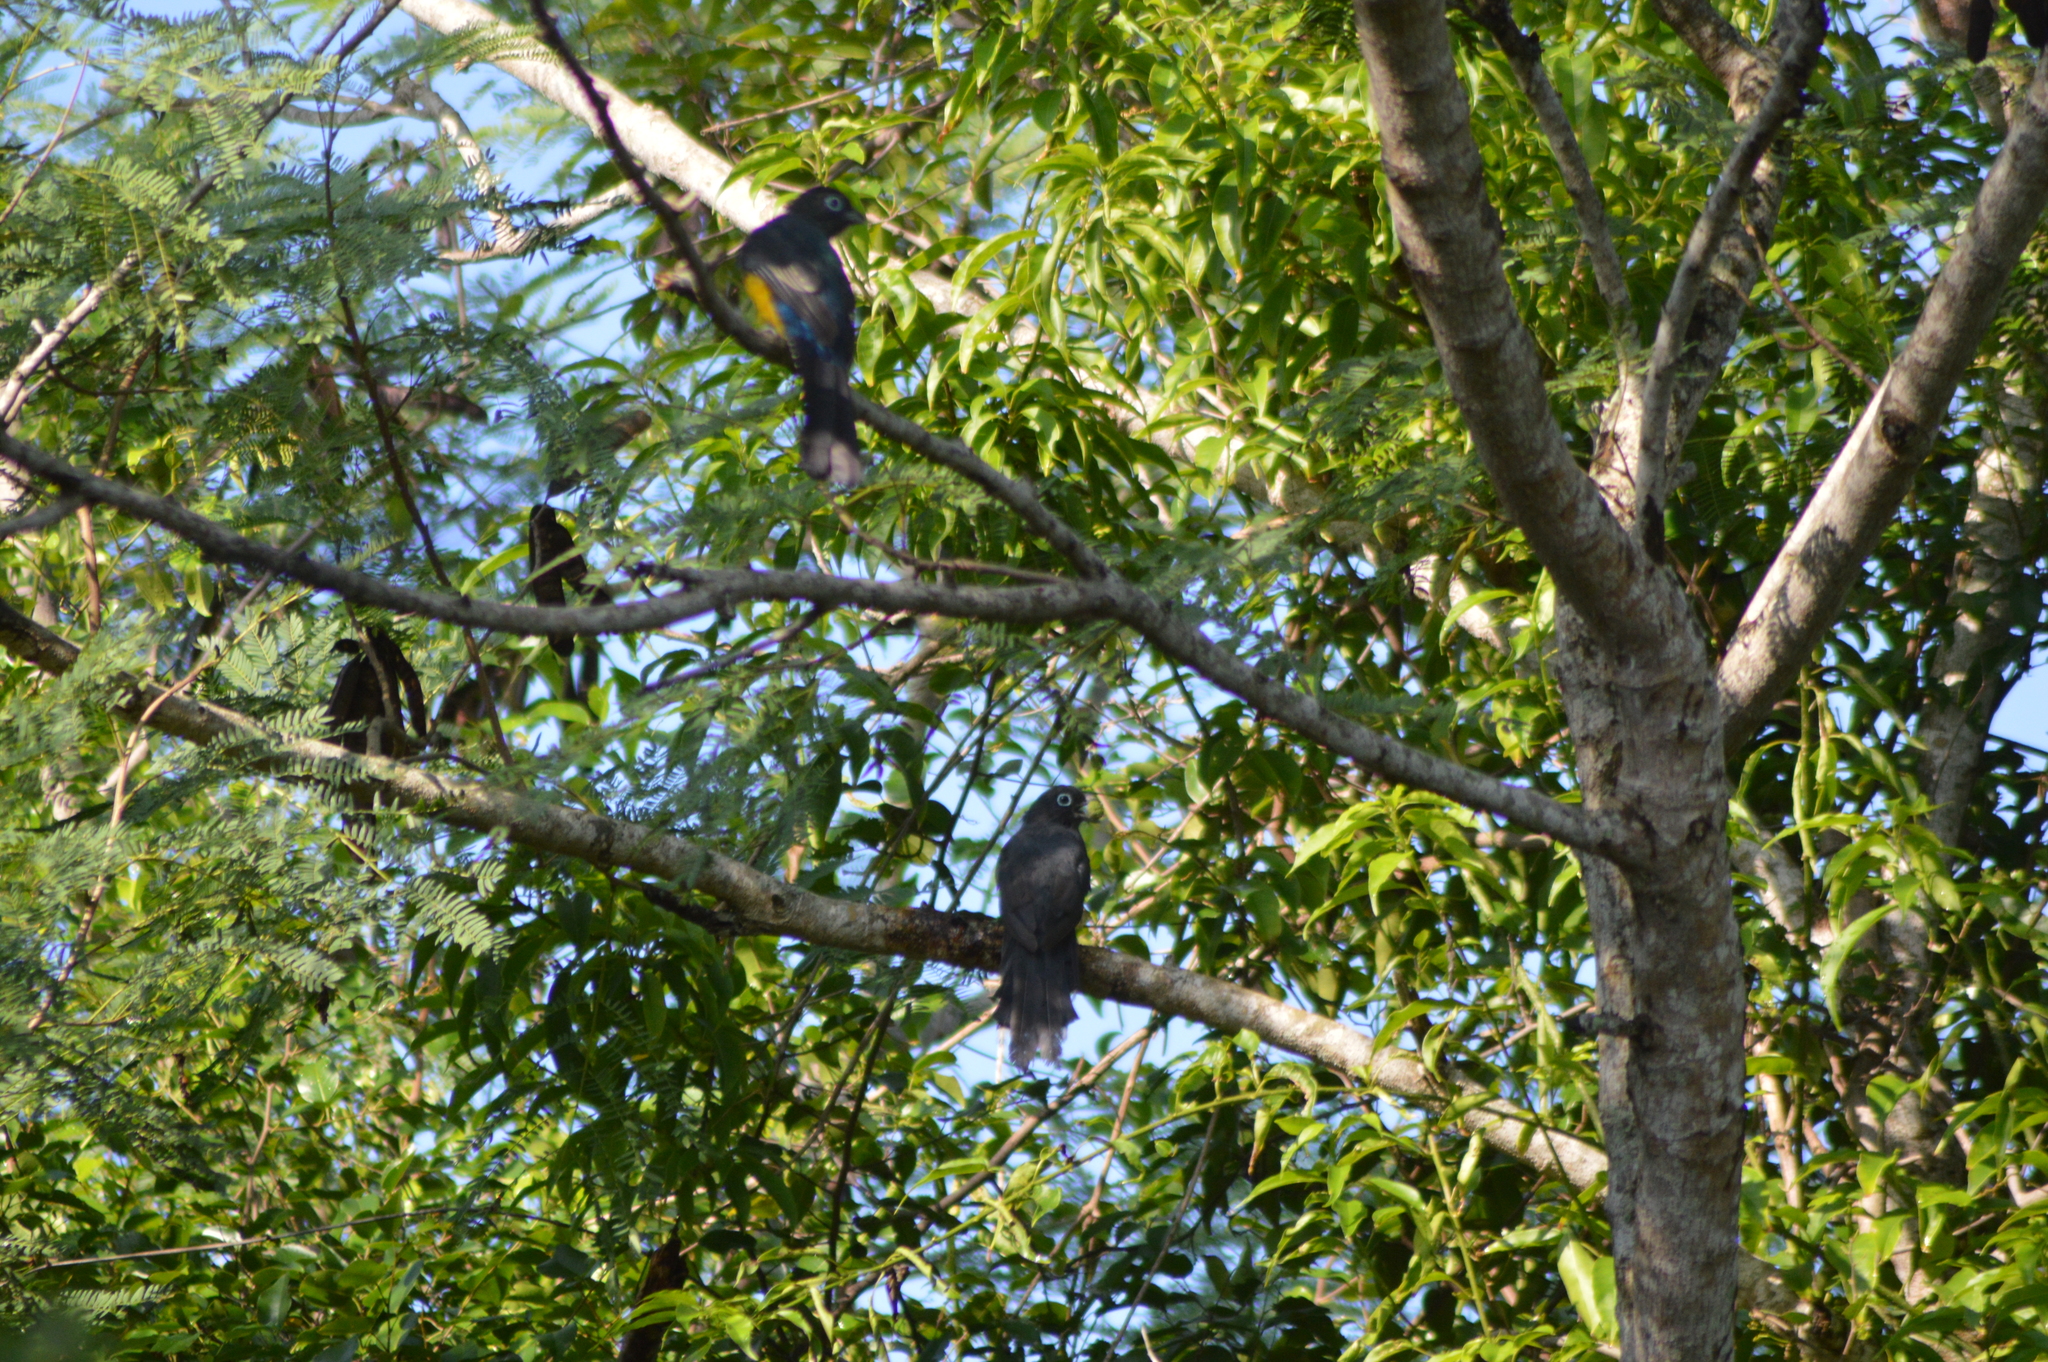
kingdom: Animalia
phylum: Chordata
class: Aves
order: Trogoniformes
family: Trogonidae
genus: Trogon
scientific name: Trogon melanocephalus
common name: Black-headed trogon
